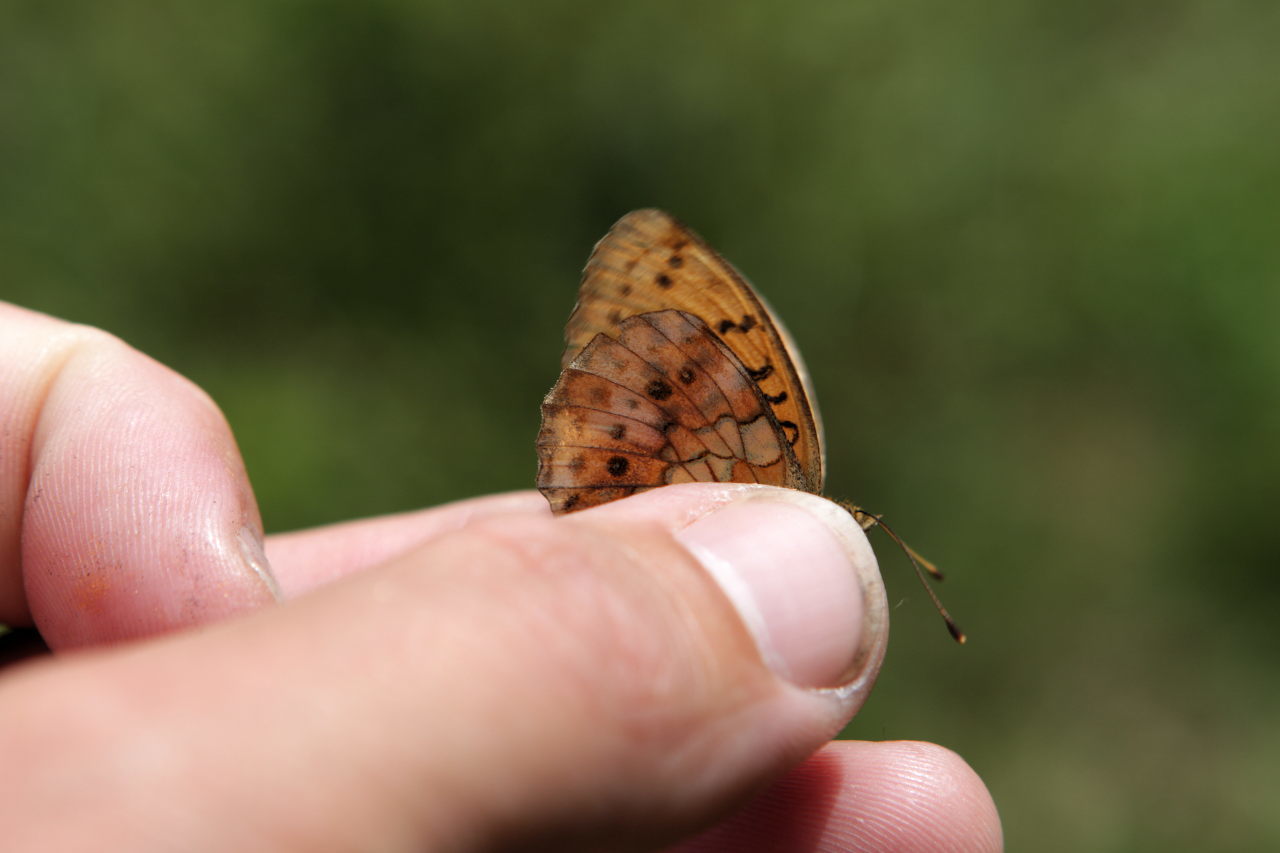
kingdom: Animalia
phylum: Arthropoda
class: Insecta
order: Lepidoptera
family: Nymphalidae
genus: Brenthis
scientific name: Brenthis daphne
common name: Marbled fritillary
